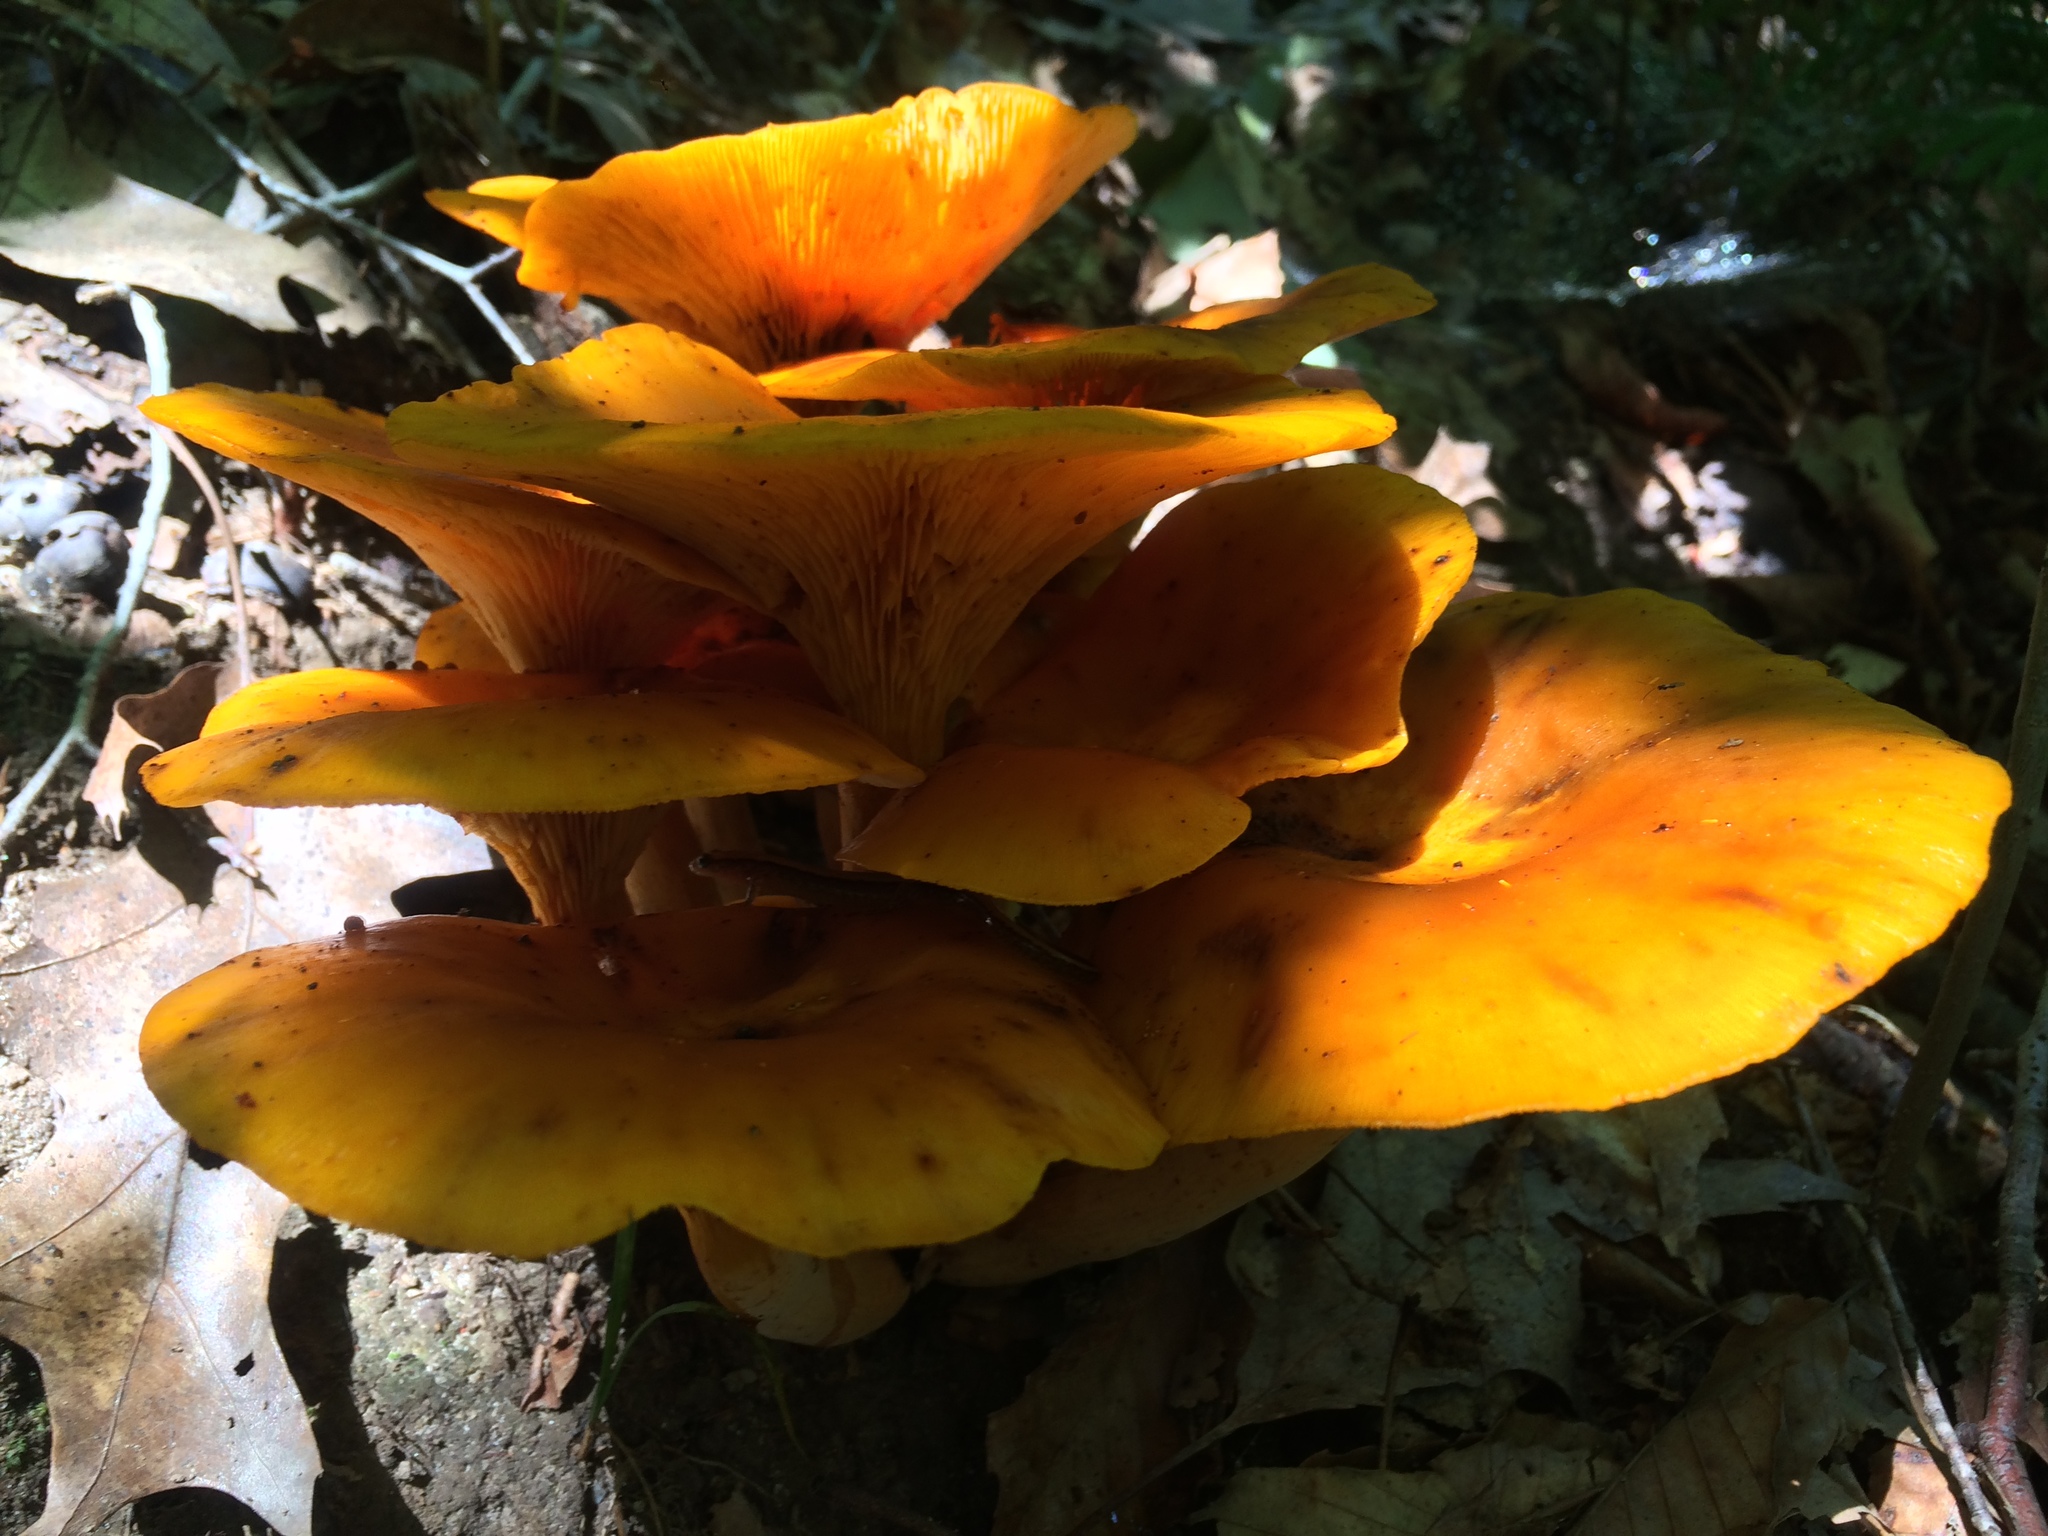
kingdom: Fungi
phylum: Basidiomycota
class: Agaricomycetes
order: Agaricales
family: Omphalotaceae
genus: Omphalotus
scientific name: Omphalotus illudens
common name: Jack o lantern
